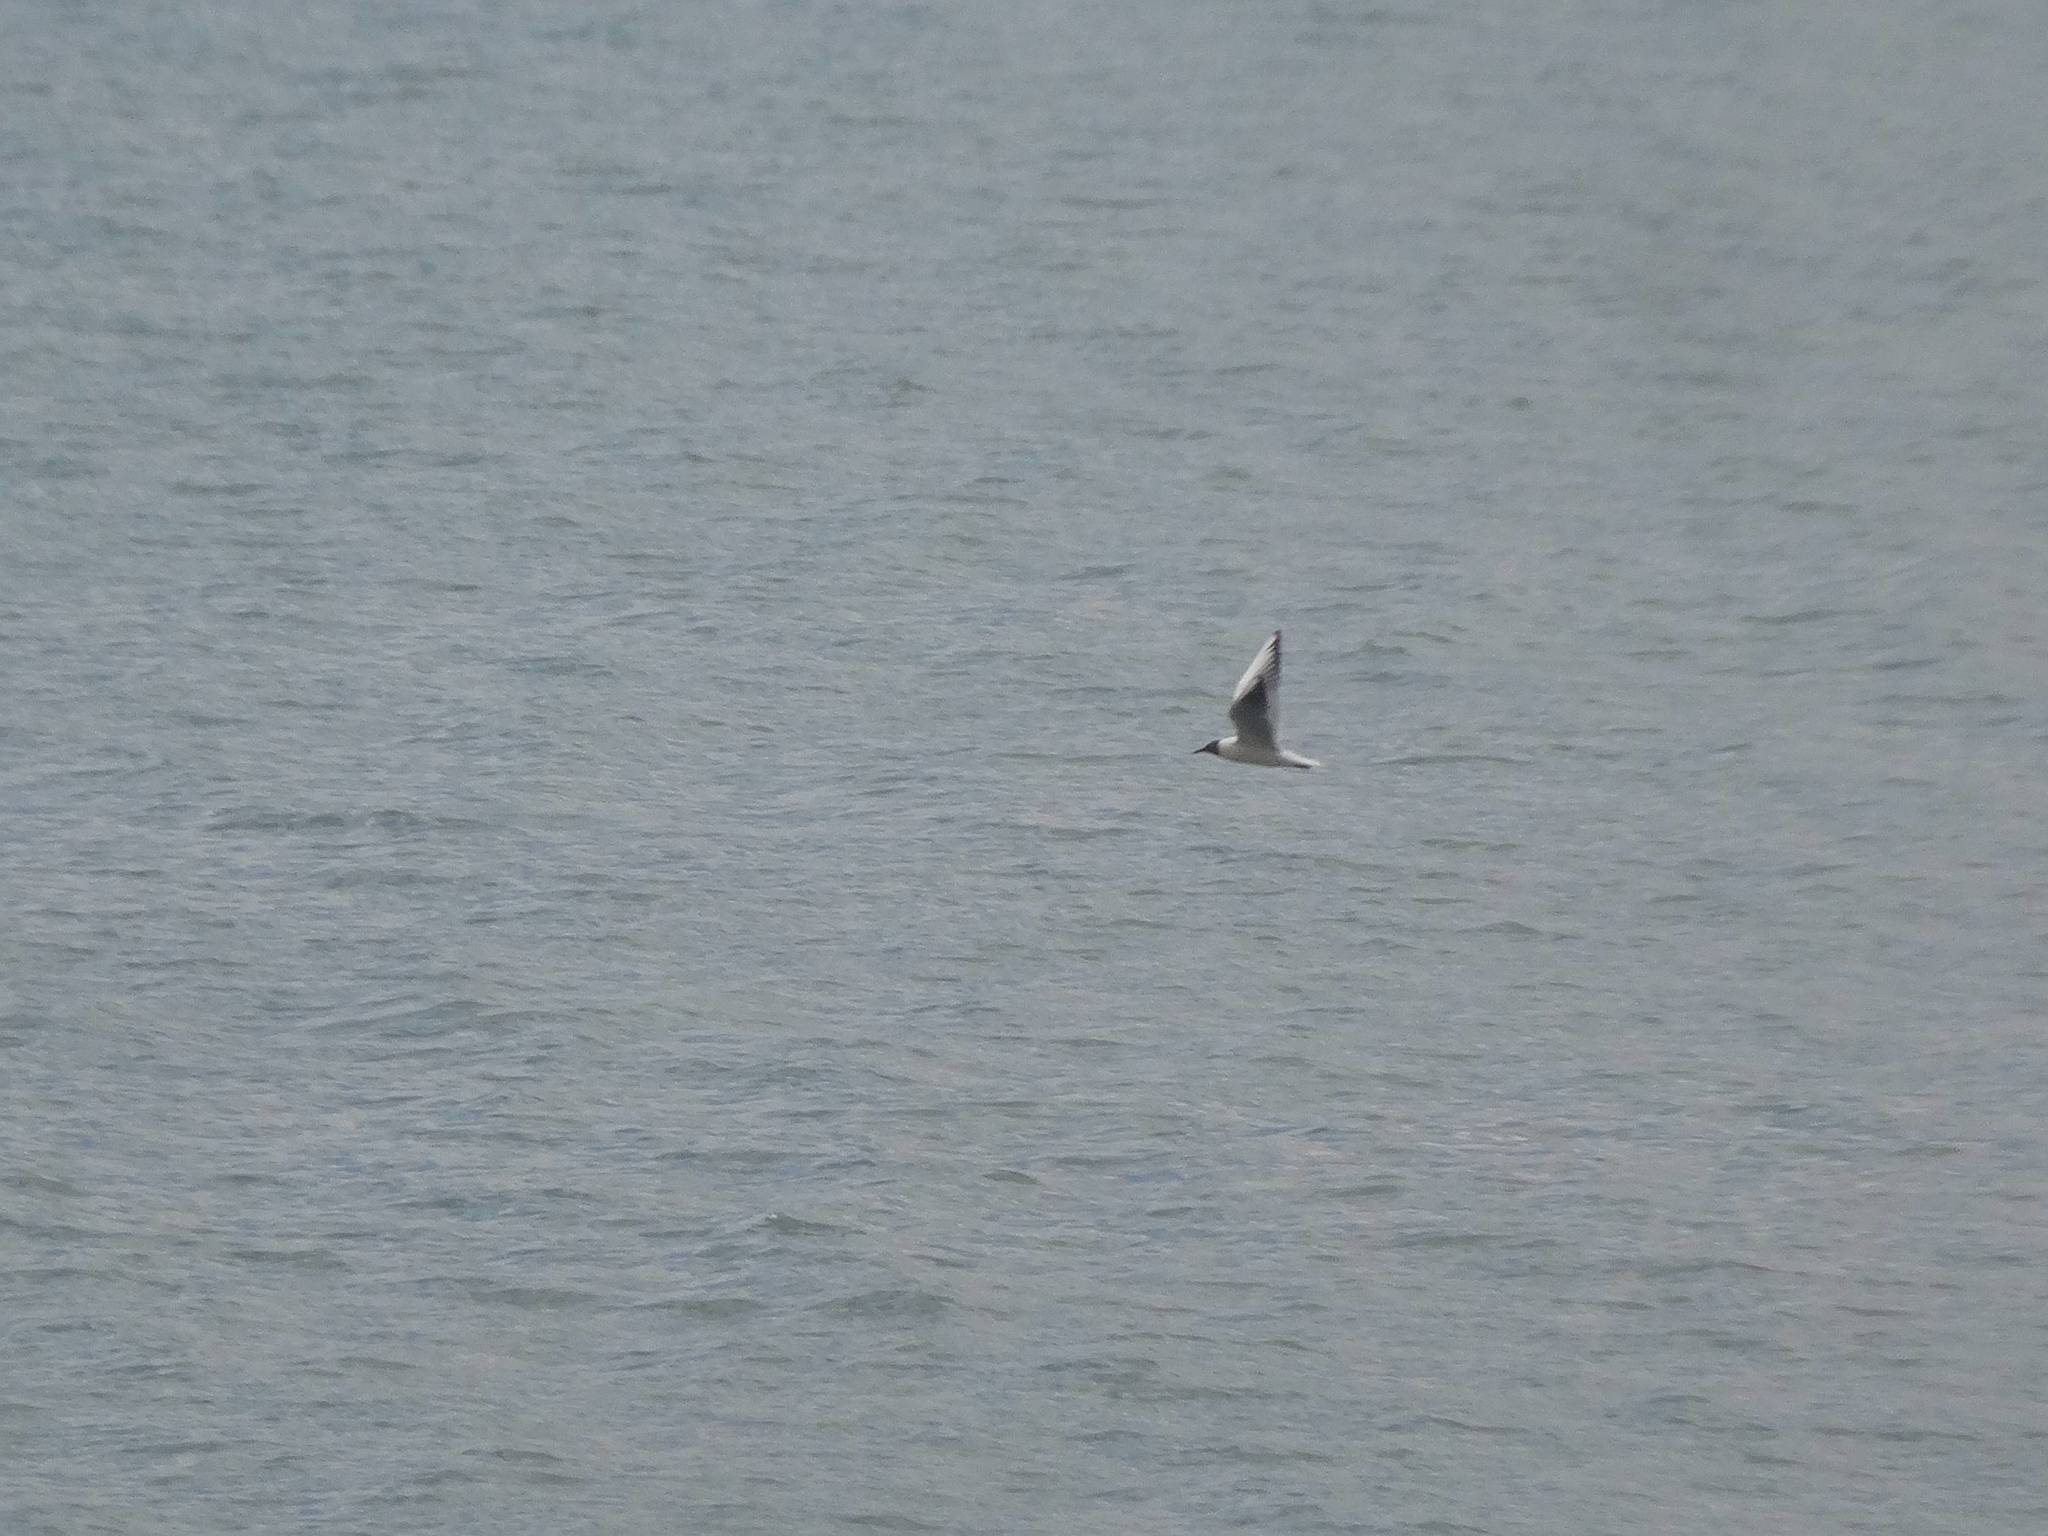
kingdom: Animalia
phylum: Chordata
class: Aves
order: Charadriiformes
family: Laridae
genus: Chroicocephalus
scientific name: Chroicocephalus ridibundus
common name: Black-headed gull
